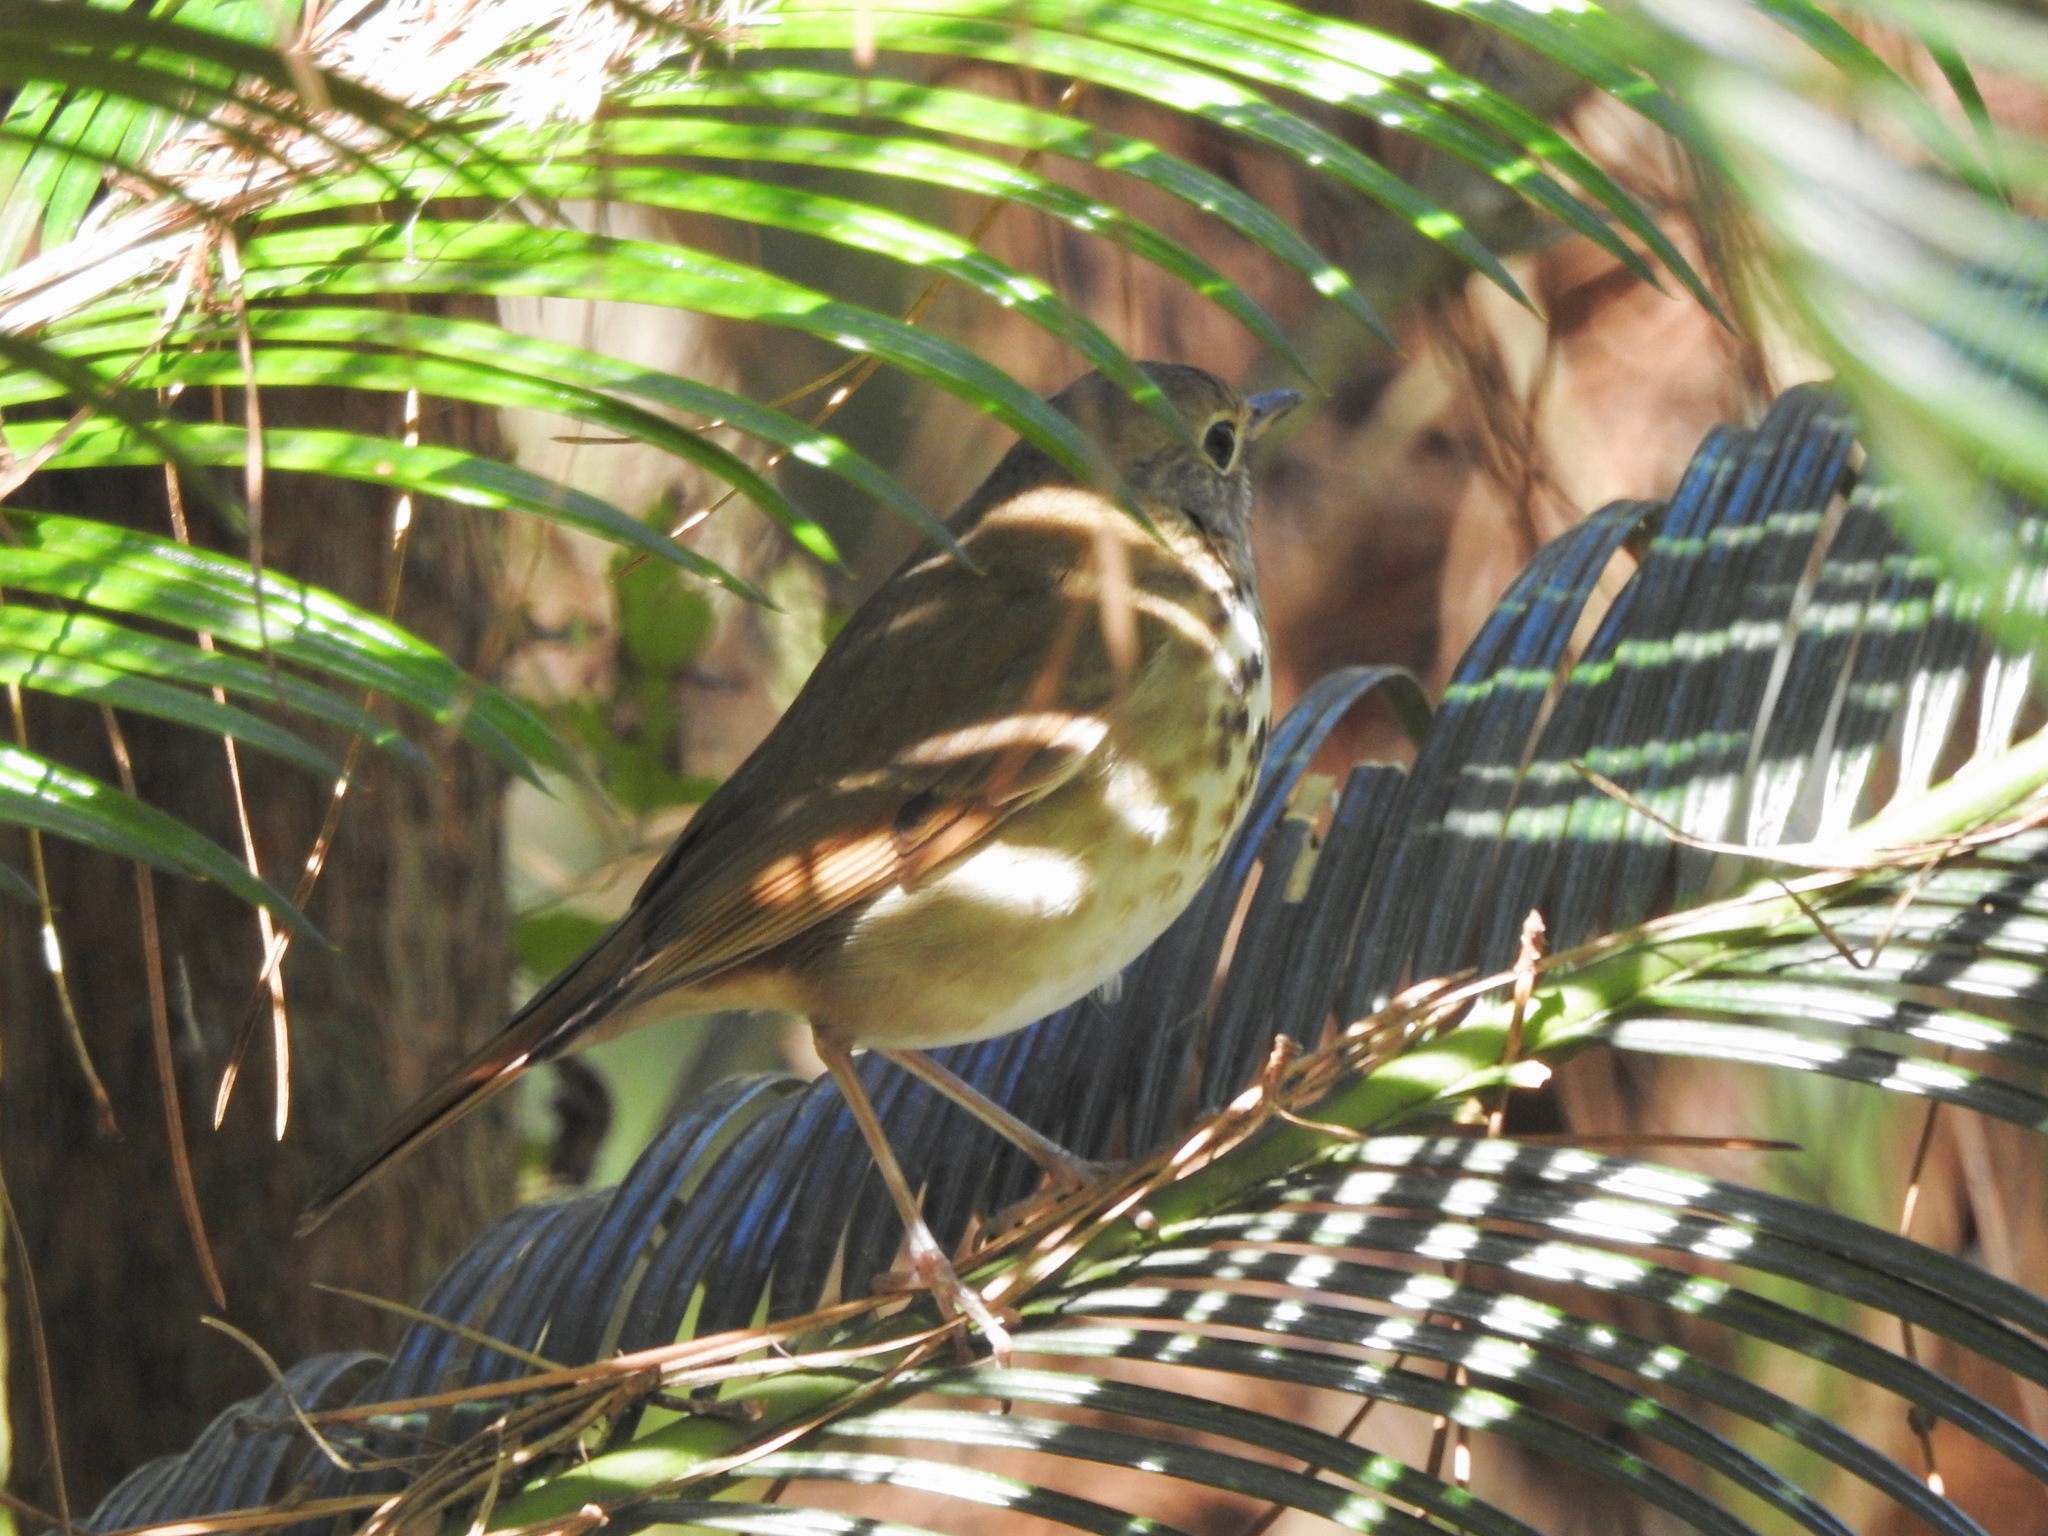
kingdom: Animalia
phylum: Chordata
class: Aves
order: Passeriformes
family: Turdidae
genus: Catharus
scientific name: Catharus guttatus
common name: Hermit thrush
